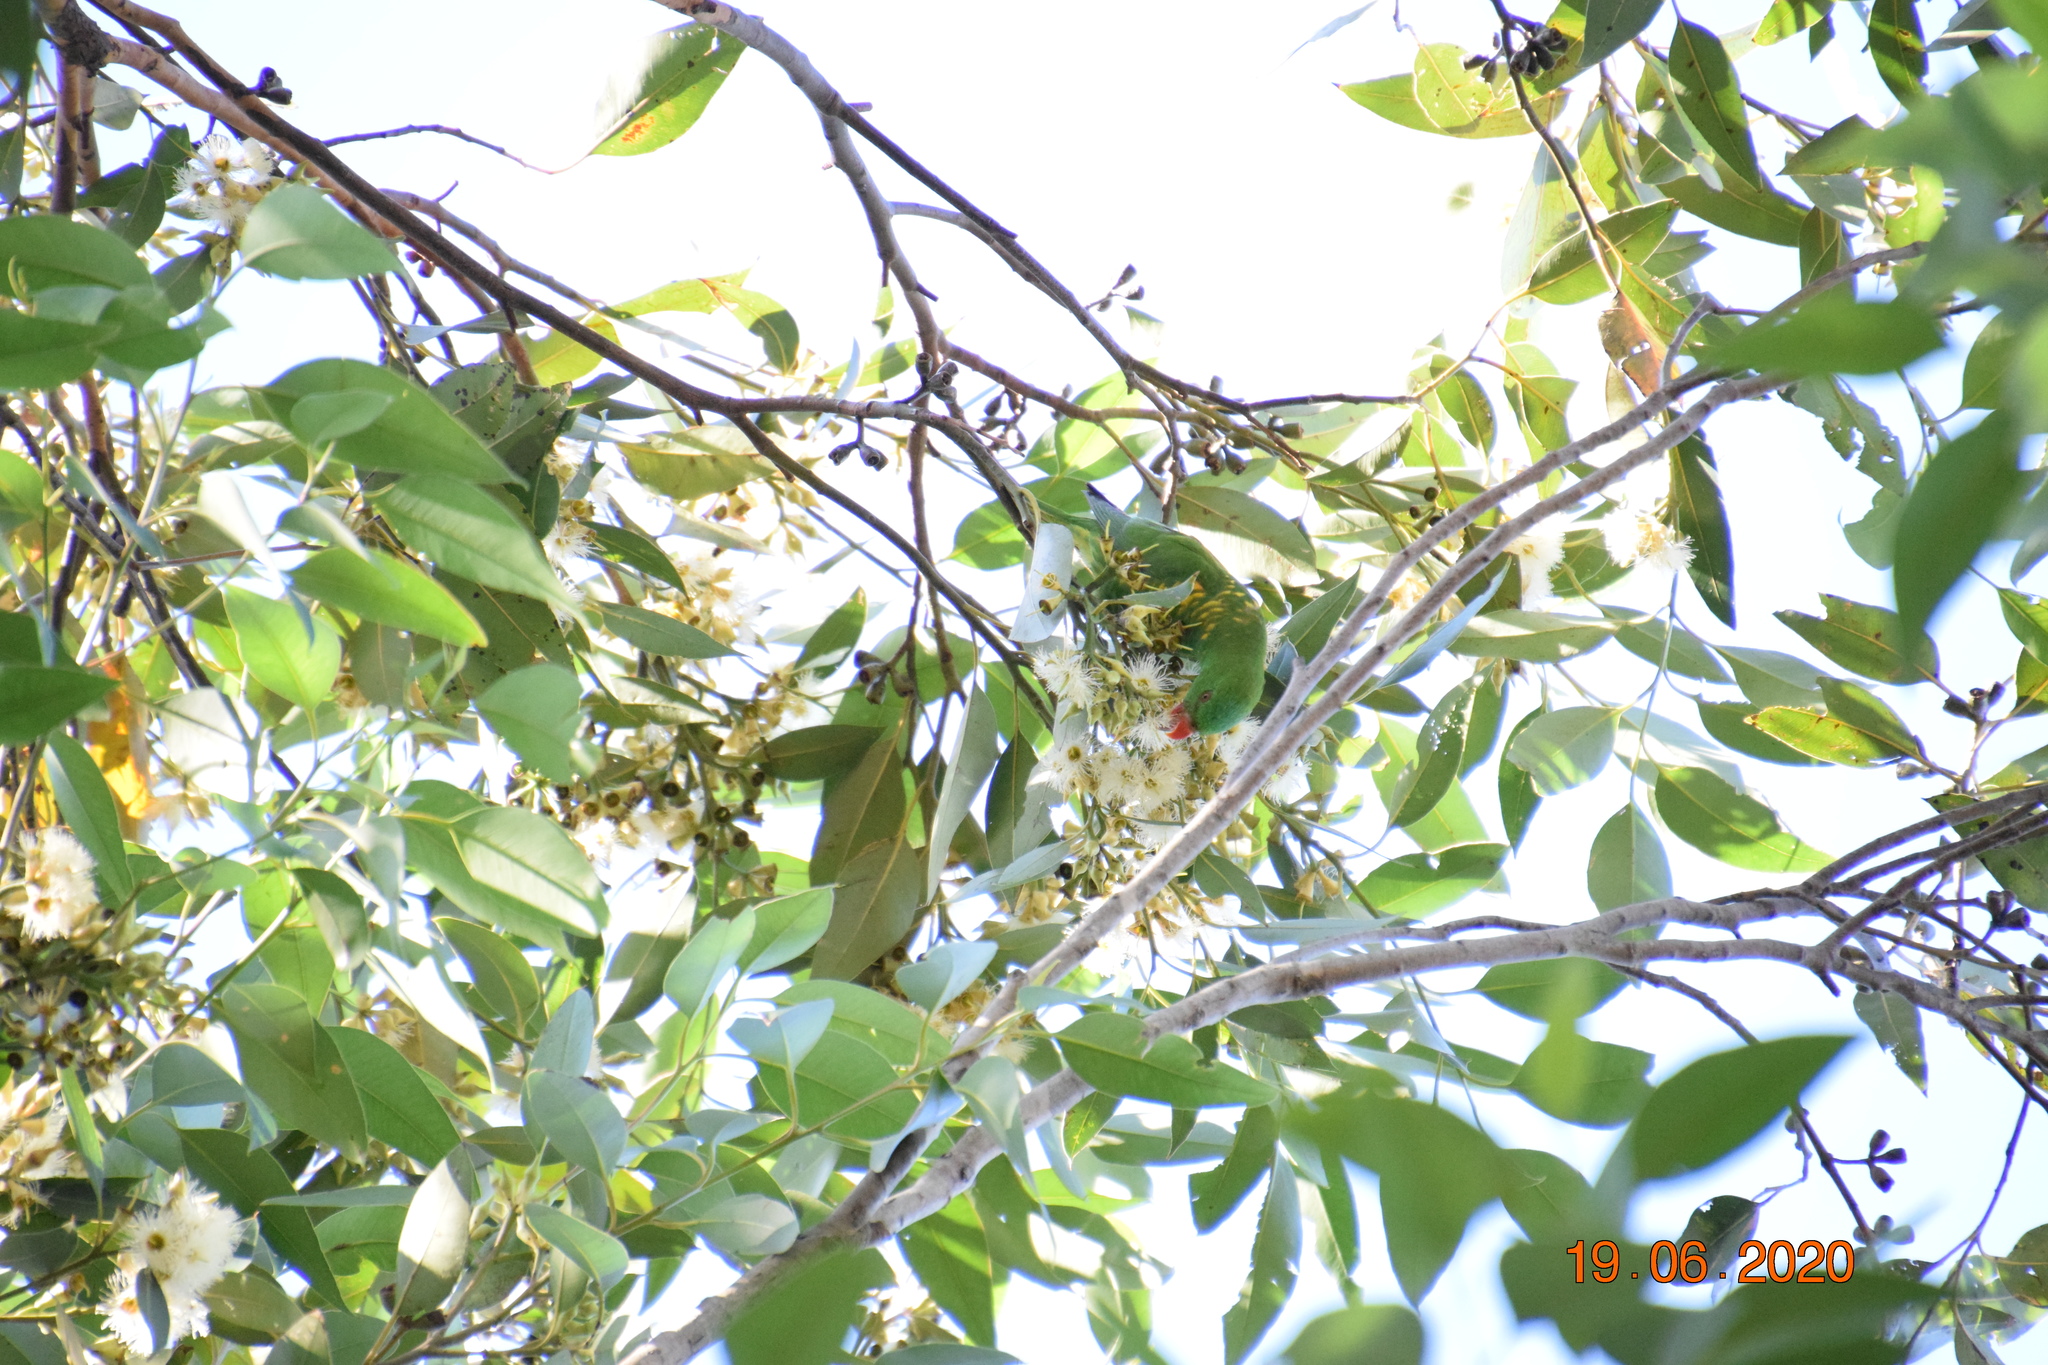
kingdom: Animalia
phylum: Chordata
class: Aves
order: Psittaciformes
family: Psittacidae
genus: Trichoglossus
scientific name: Trichoglossus chlorolepidotus
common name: Scaly-breasted lorikeet
